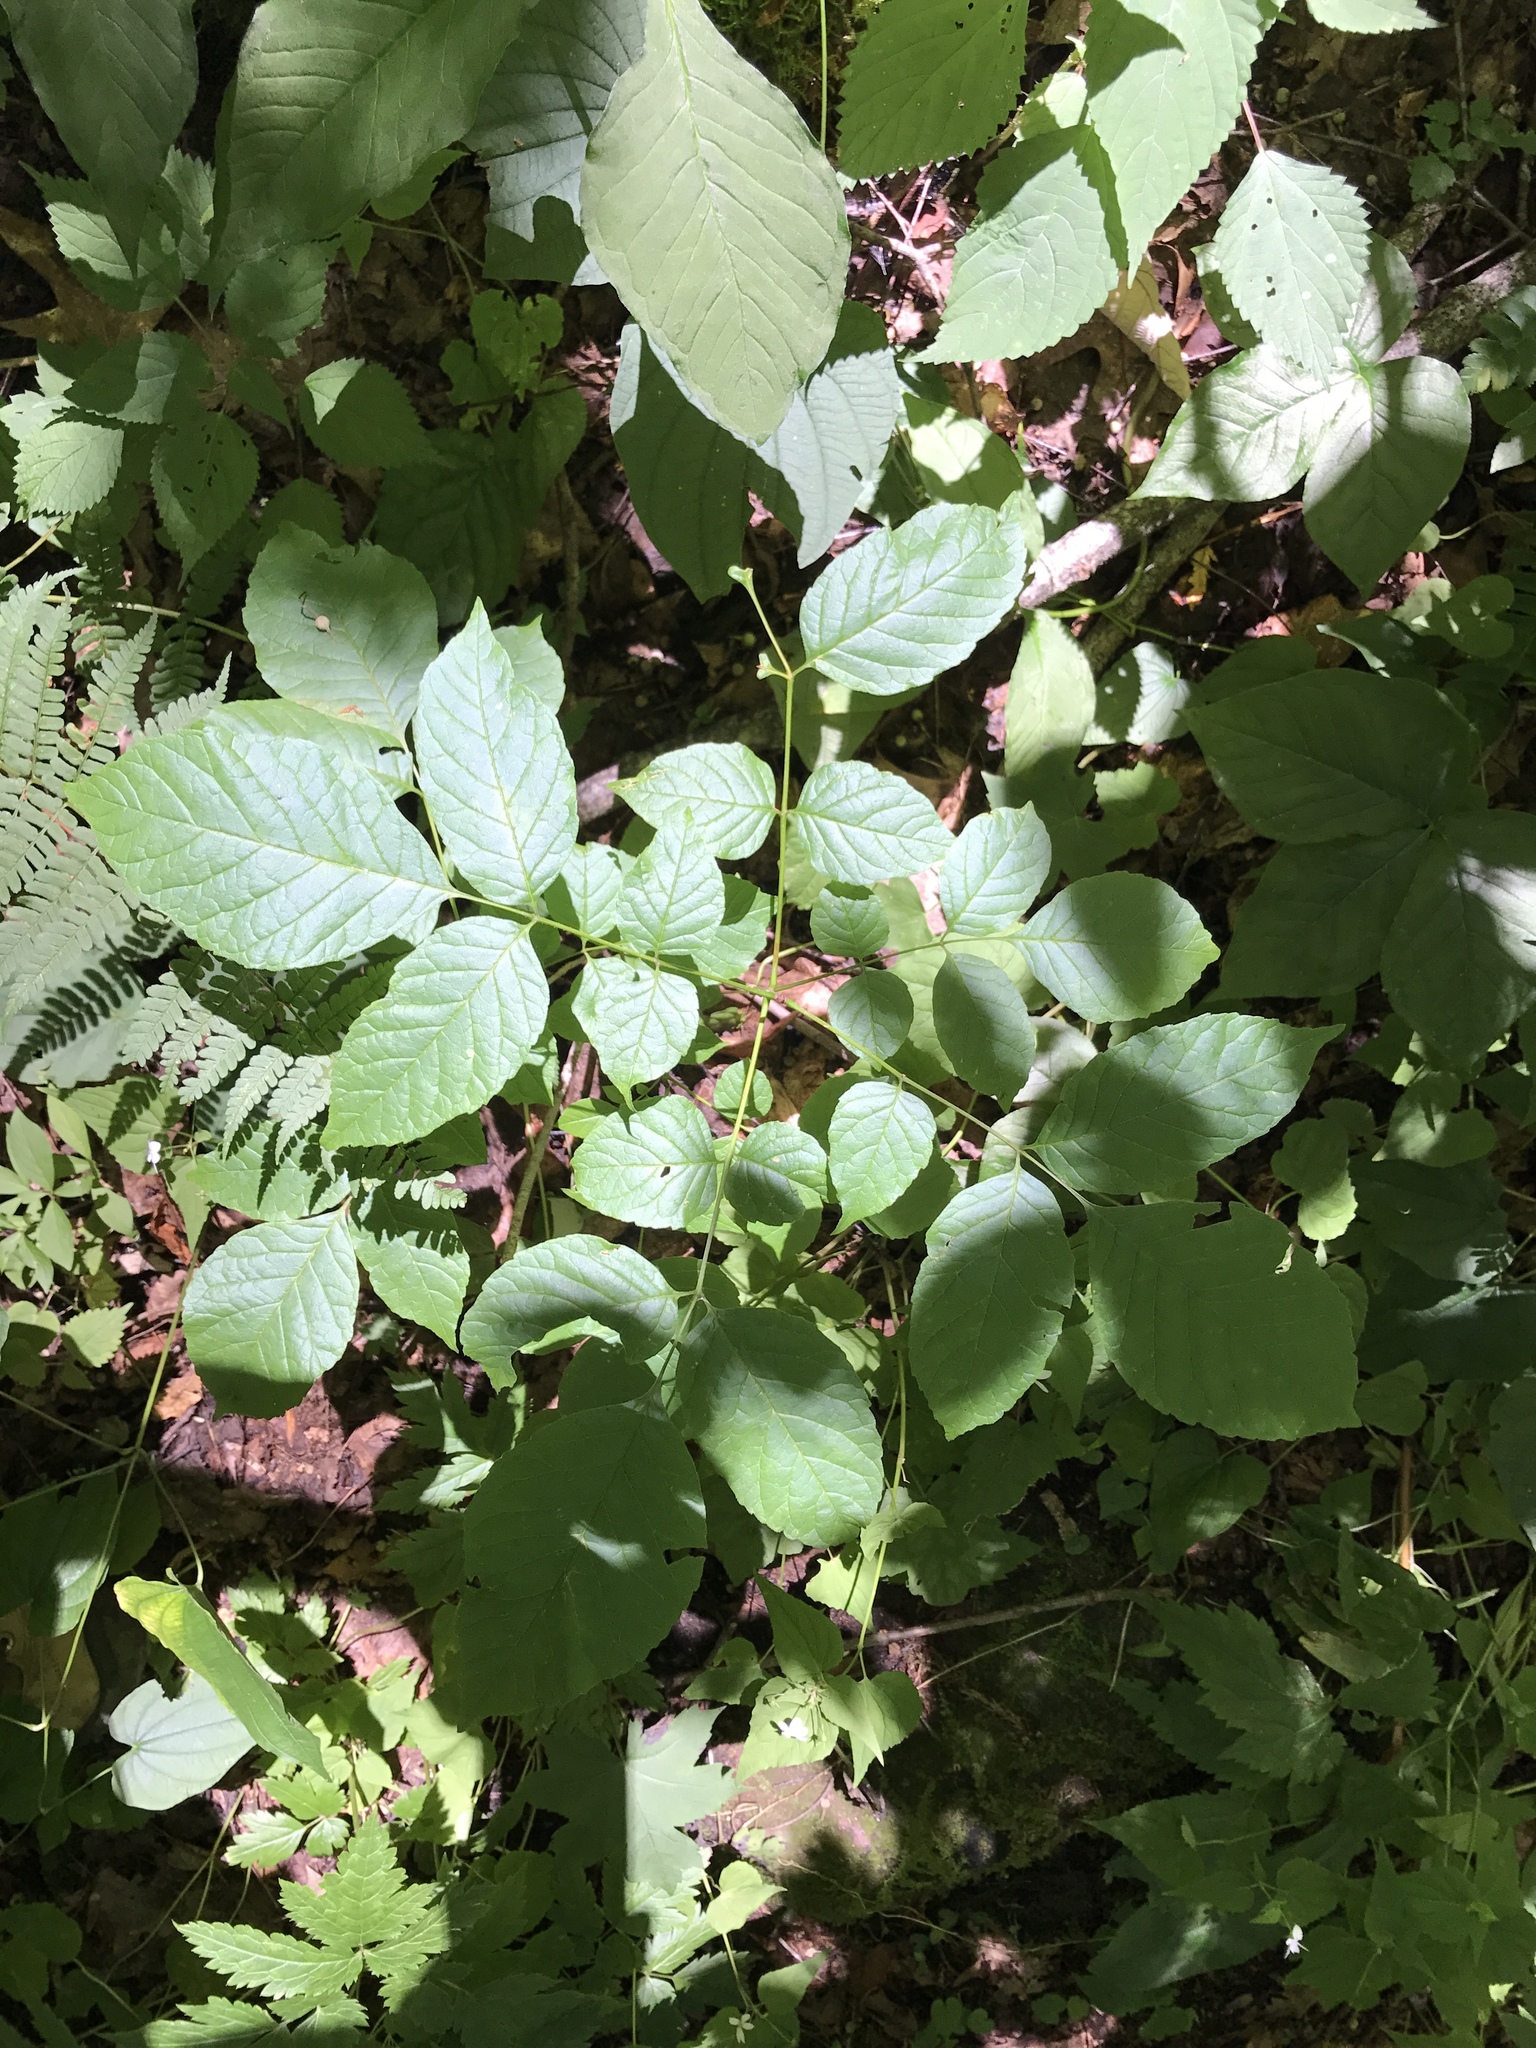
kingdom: Plantae
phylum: Tracheophyta
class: Magnoliopsida
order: Lamiales
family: Oleaceae
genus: Fraxinus
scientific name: Fraxinus americana
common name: White ash
